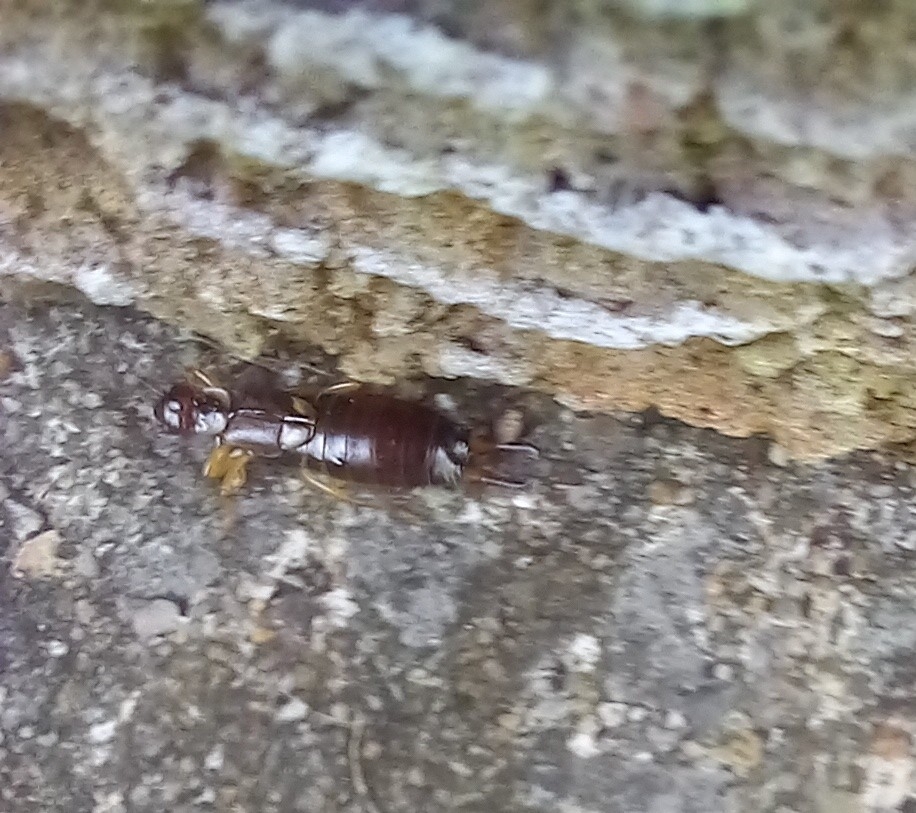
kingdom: Animalia
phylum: Arthropoda
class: Insecta
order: Dermaptera
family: Forficulidae
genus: Forficula
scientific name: Forficula
